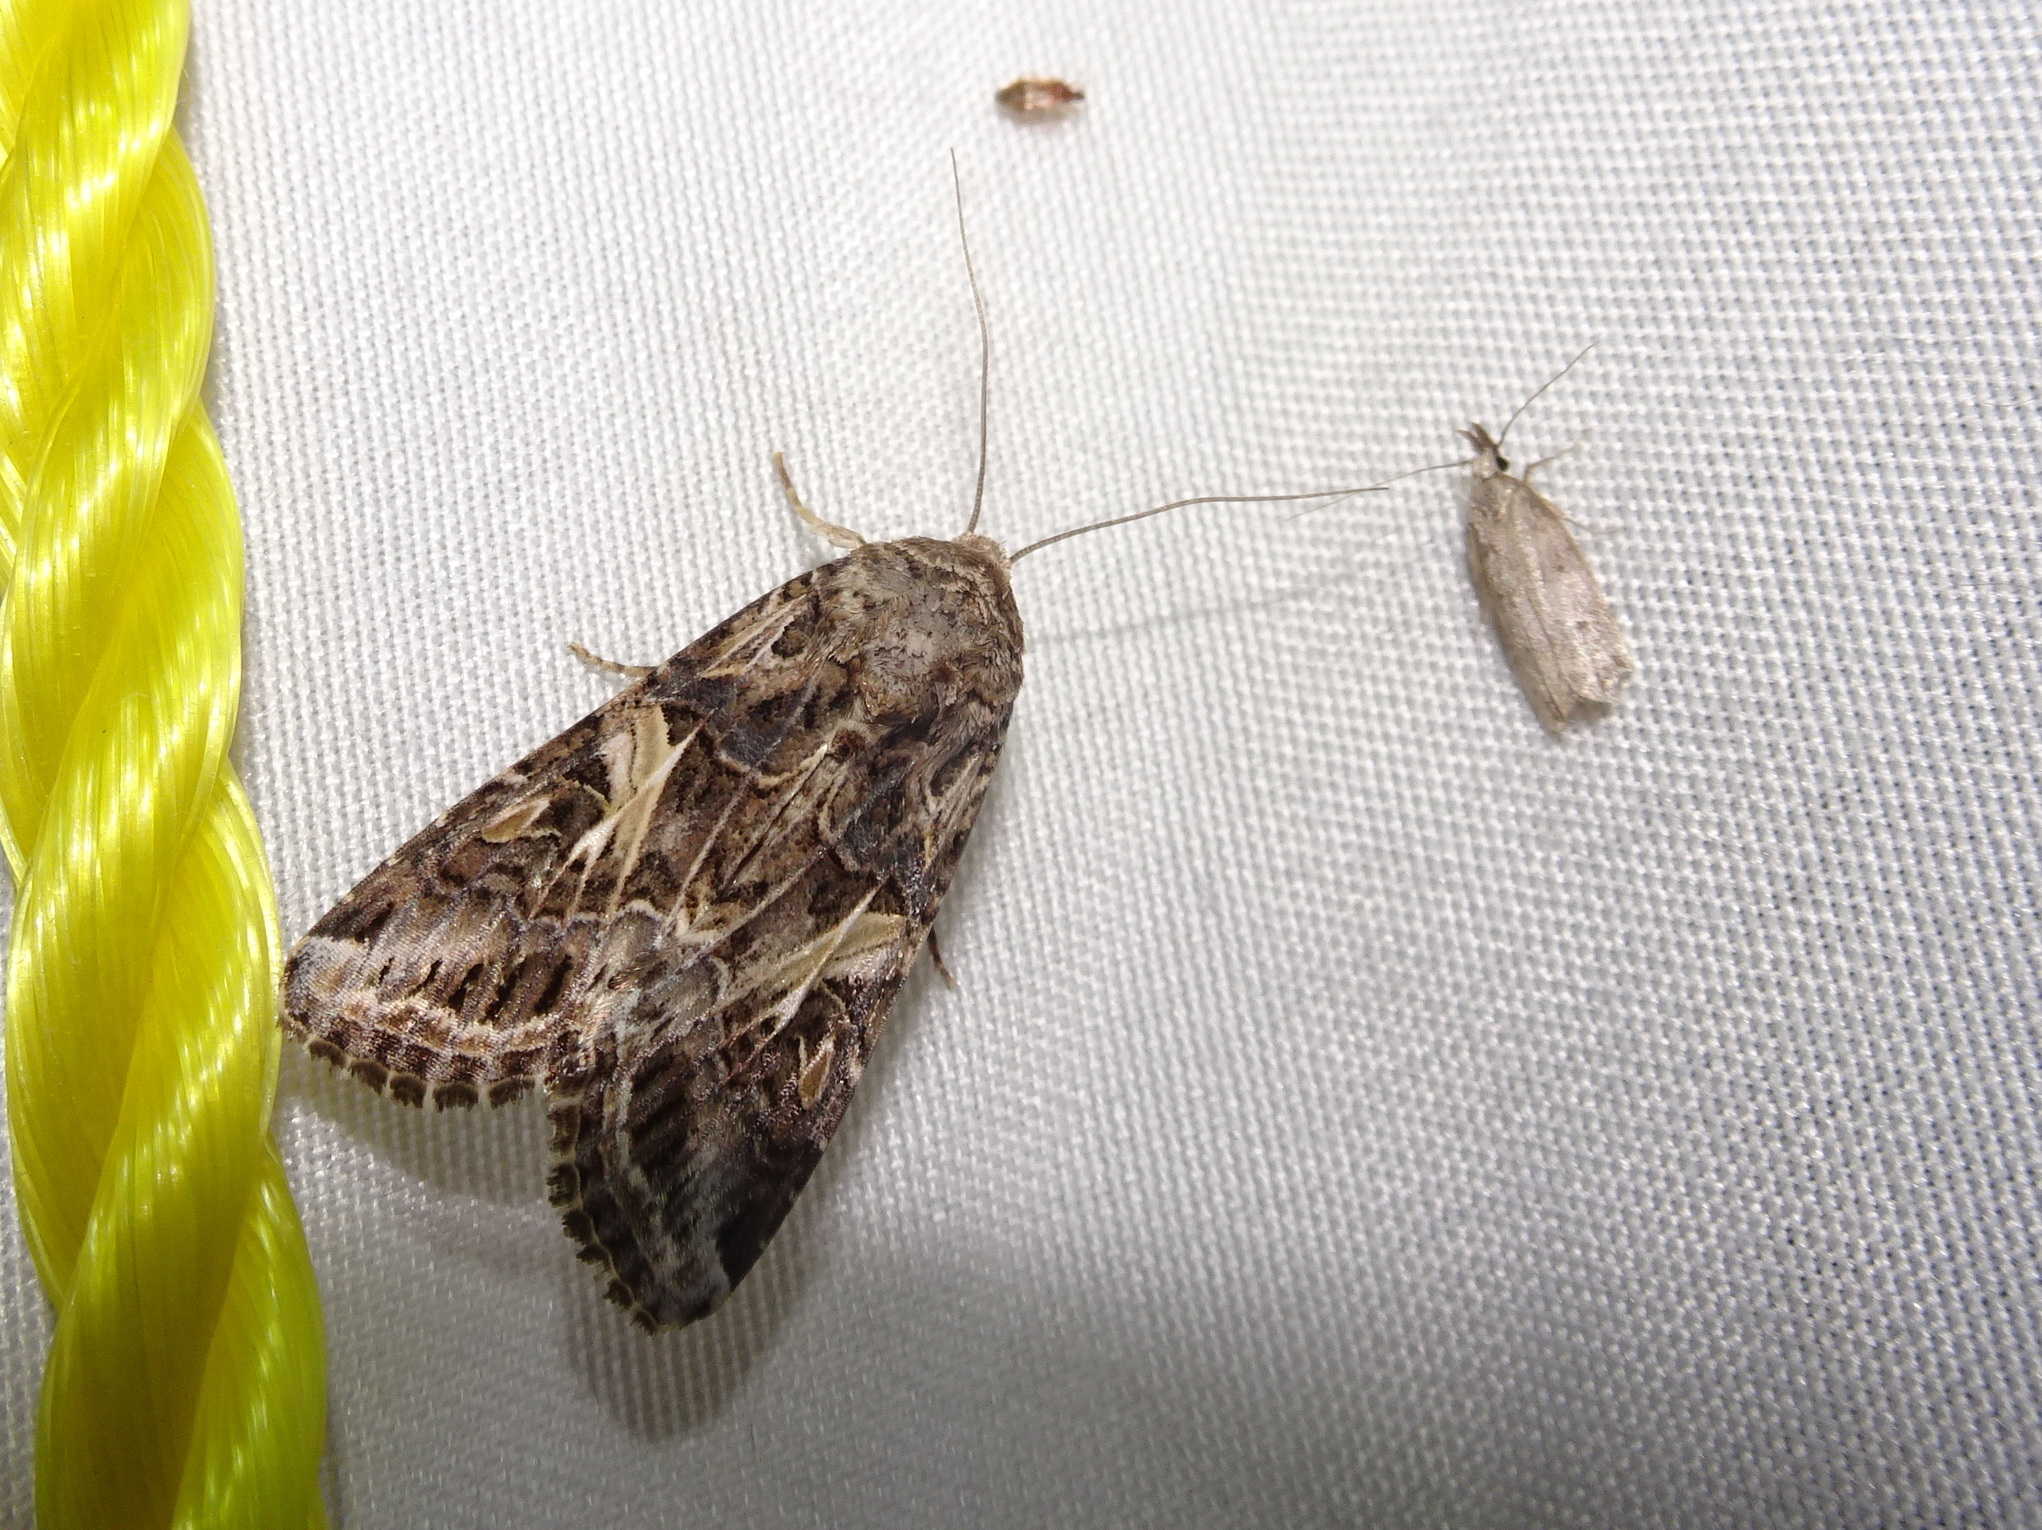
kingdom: Animalia
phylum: Arthropoda
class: Insecta
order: Lepidoptera
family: Noctuidae
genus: Spodoptera
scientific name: Spodoptera ornithogalli
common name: Yellow-striped armyworm
